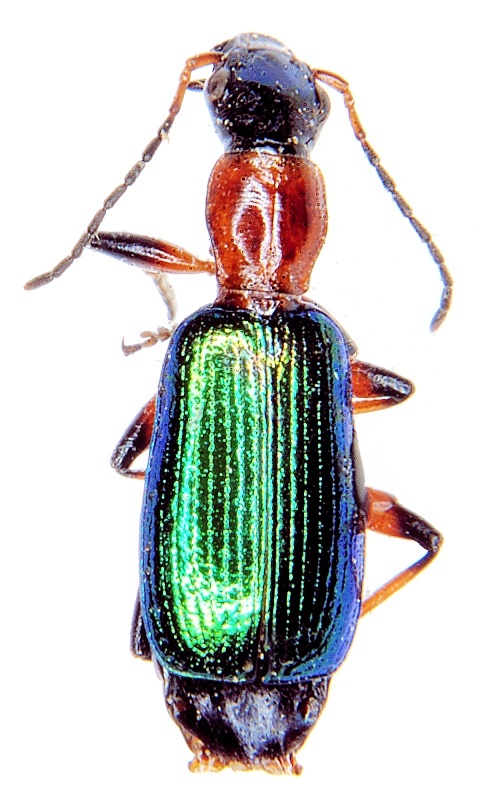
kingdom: Animalia
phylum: Arthropoda
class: Insecta
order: Coleoptera
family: Carabidae
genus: Calleida
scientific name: Calleida punctata
